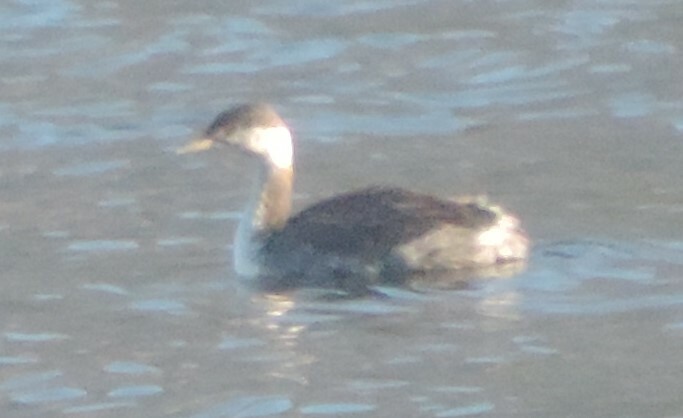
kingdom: Animalia
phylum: Chordata
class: Aves
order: Podicipediformes
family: Podicipedidae
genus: Podiceps
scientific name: Podiceps grisegena
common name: Red-necked grebe
